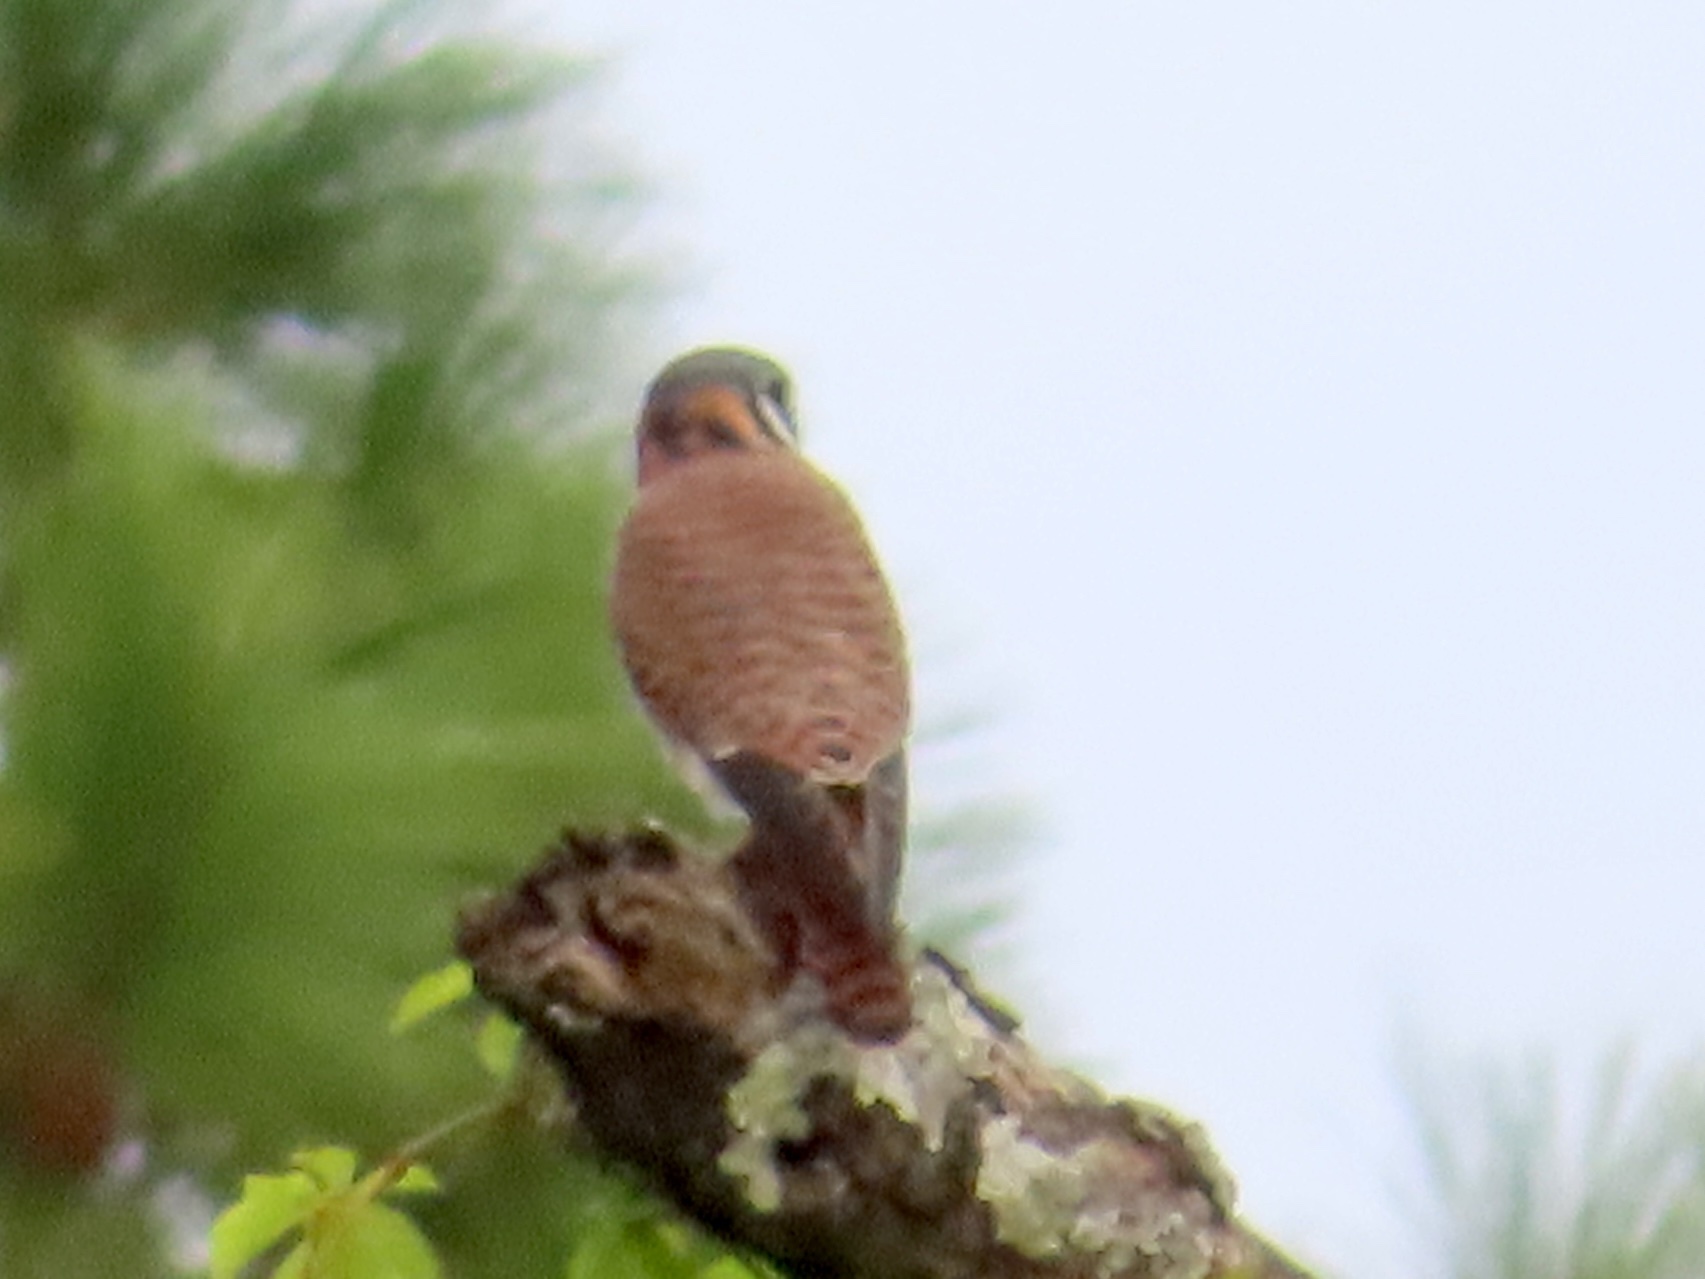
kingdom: Animalia
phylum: Chordata
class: Aves
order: Falconiformes
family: Falconidae
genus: Falco
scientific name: Falco sparverius
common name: American kestrel
